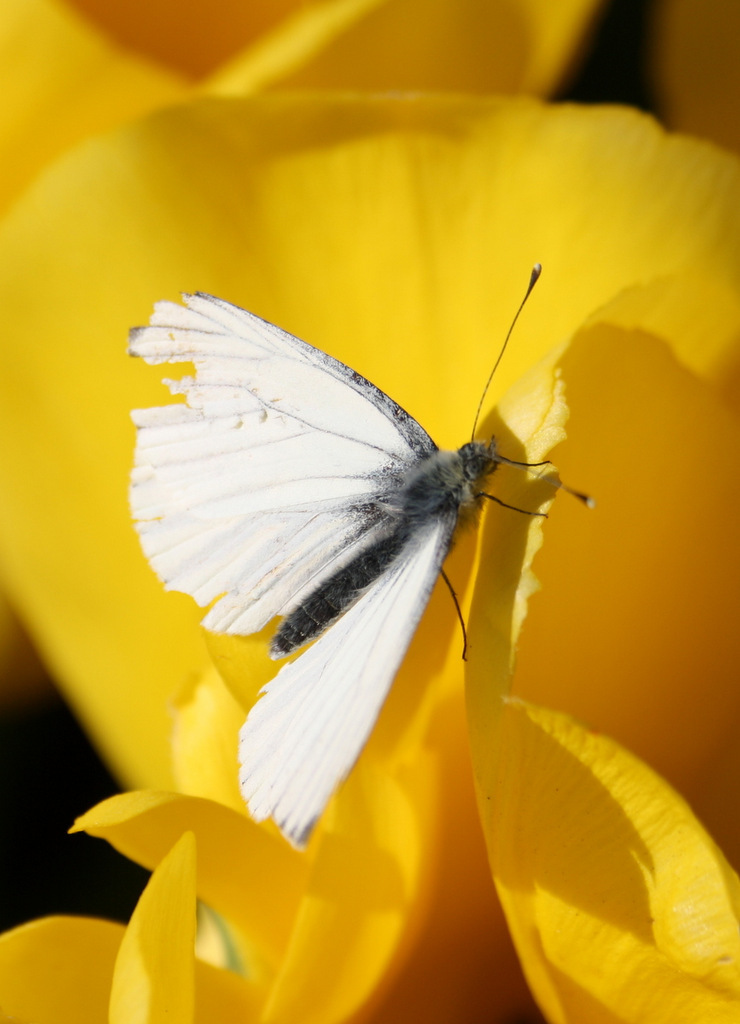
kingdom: Animalia
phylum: Arthropoda
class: Insecta
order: Lepidoptera
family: Pieridae
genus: Pieris
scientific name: Pieris napi
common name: Green-veined white
